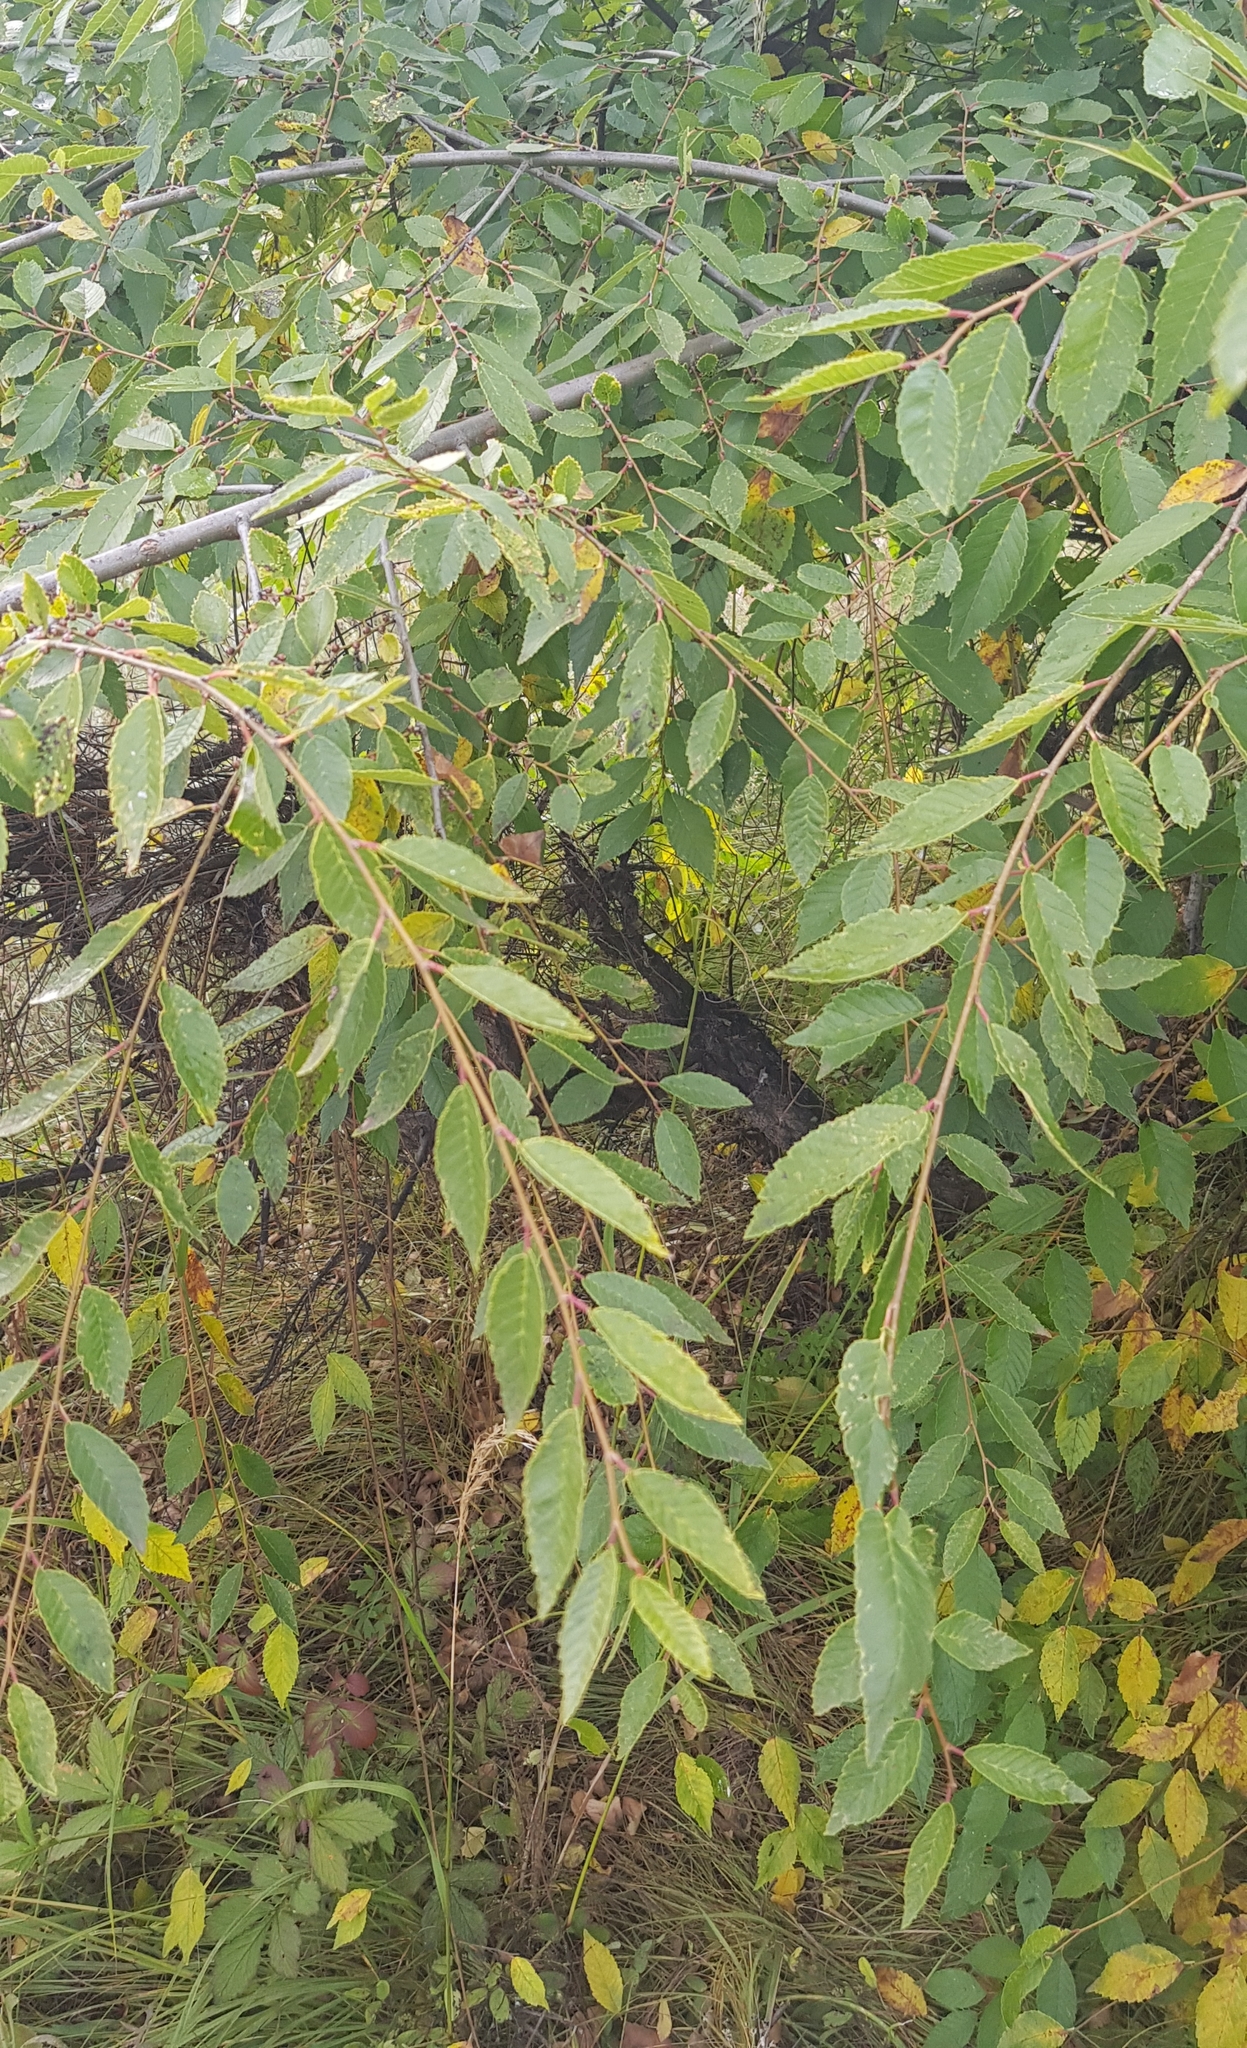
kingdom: Plantae
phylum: Tracheophyta
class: Magnoliopsida
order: Rosales
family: Ulmaceae
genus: Ulmus
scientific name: Ulmus pumila
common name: Siberian elm
